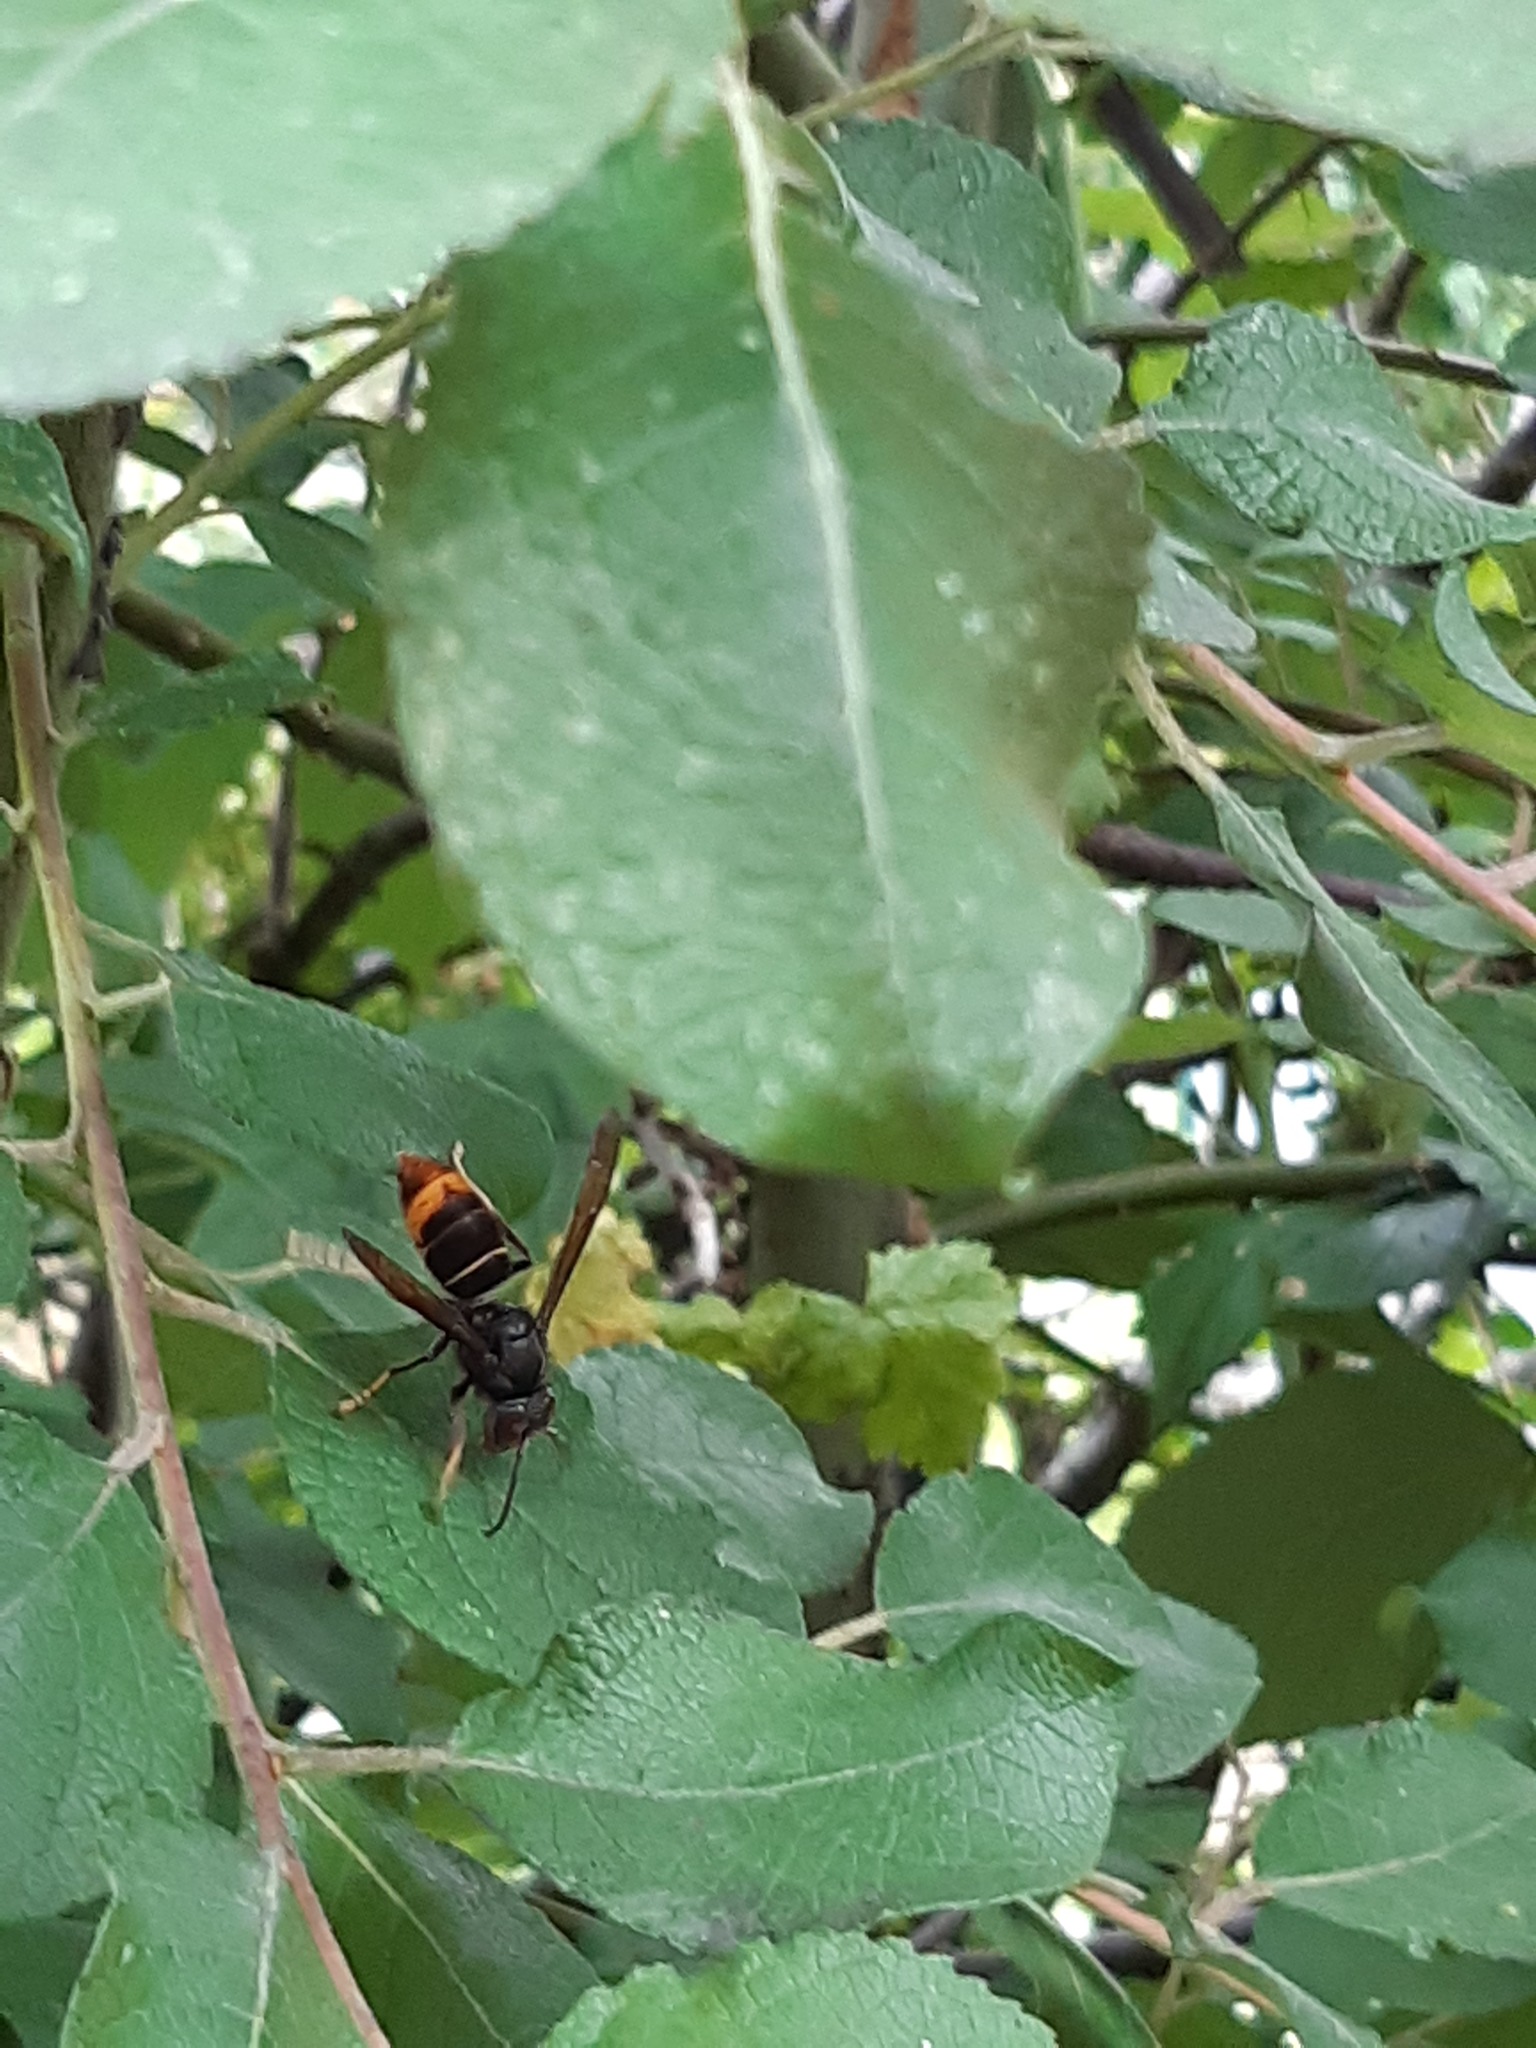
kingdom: Animalia
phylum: Arthropoda
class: Insecta
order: Hymenoptera
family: Vespidae
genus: Vespa
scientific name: Vespa velutina
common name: Asian hornet
